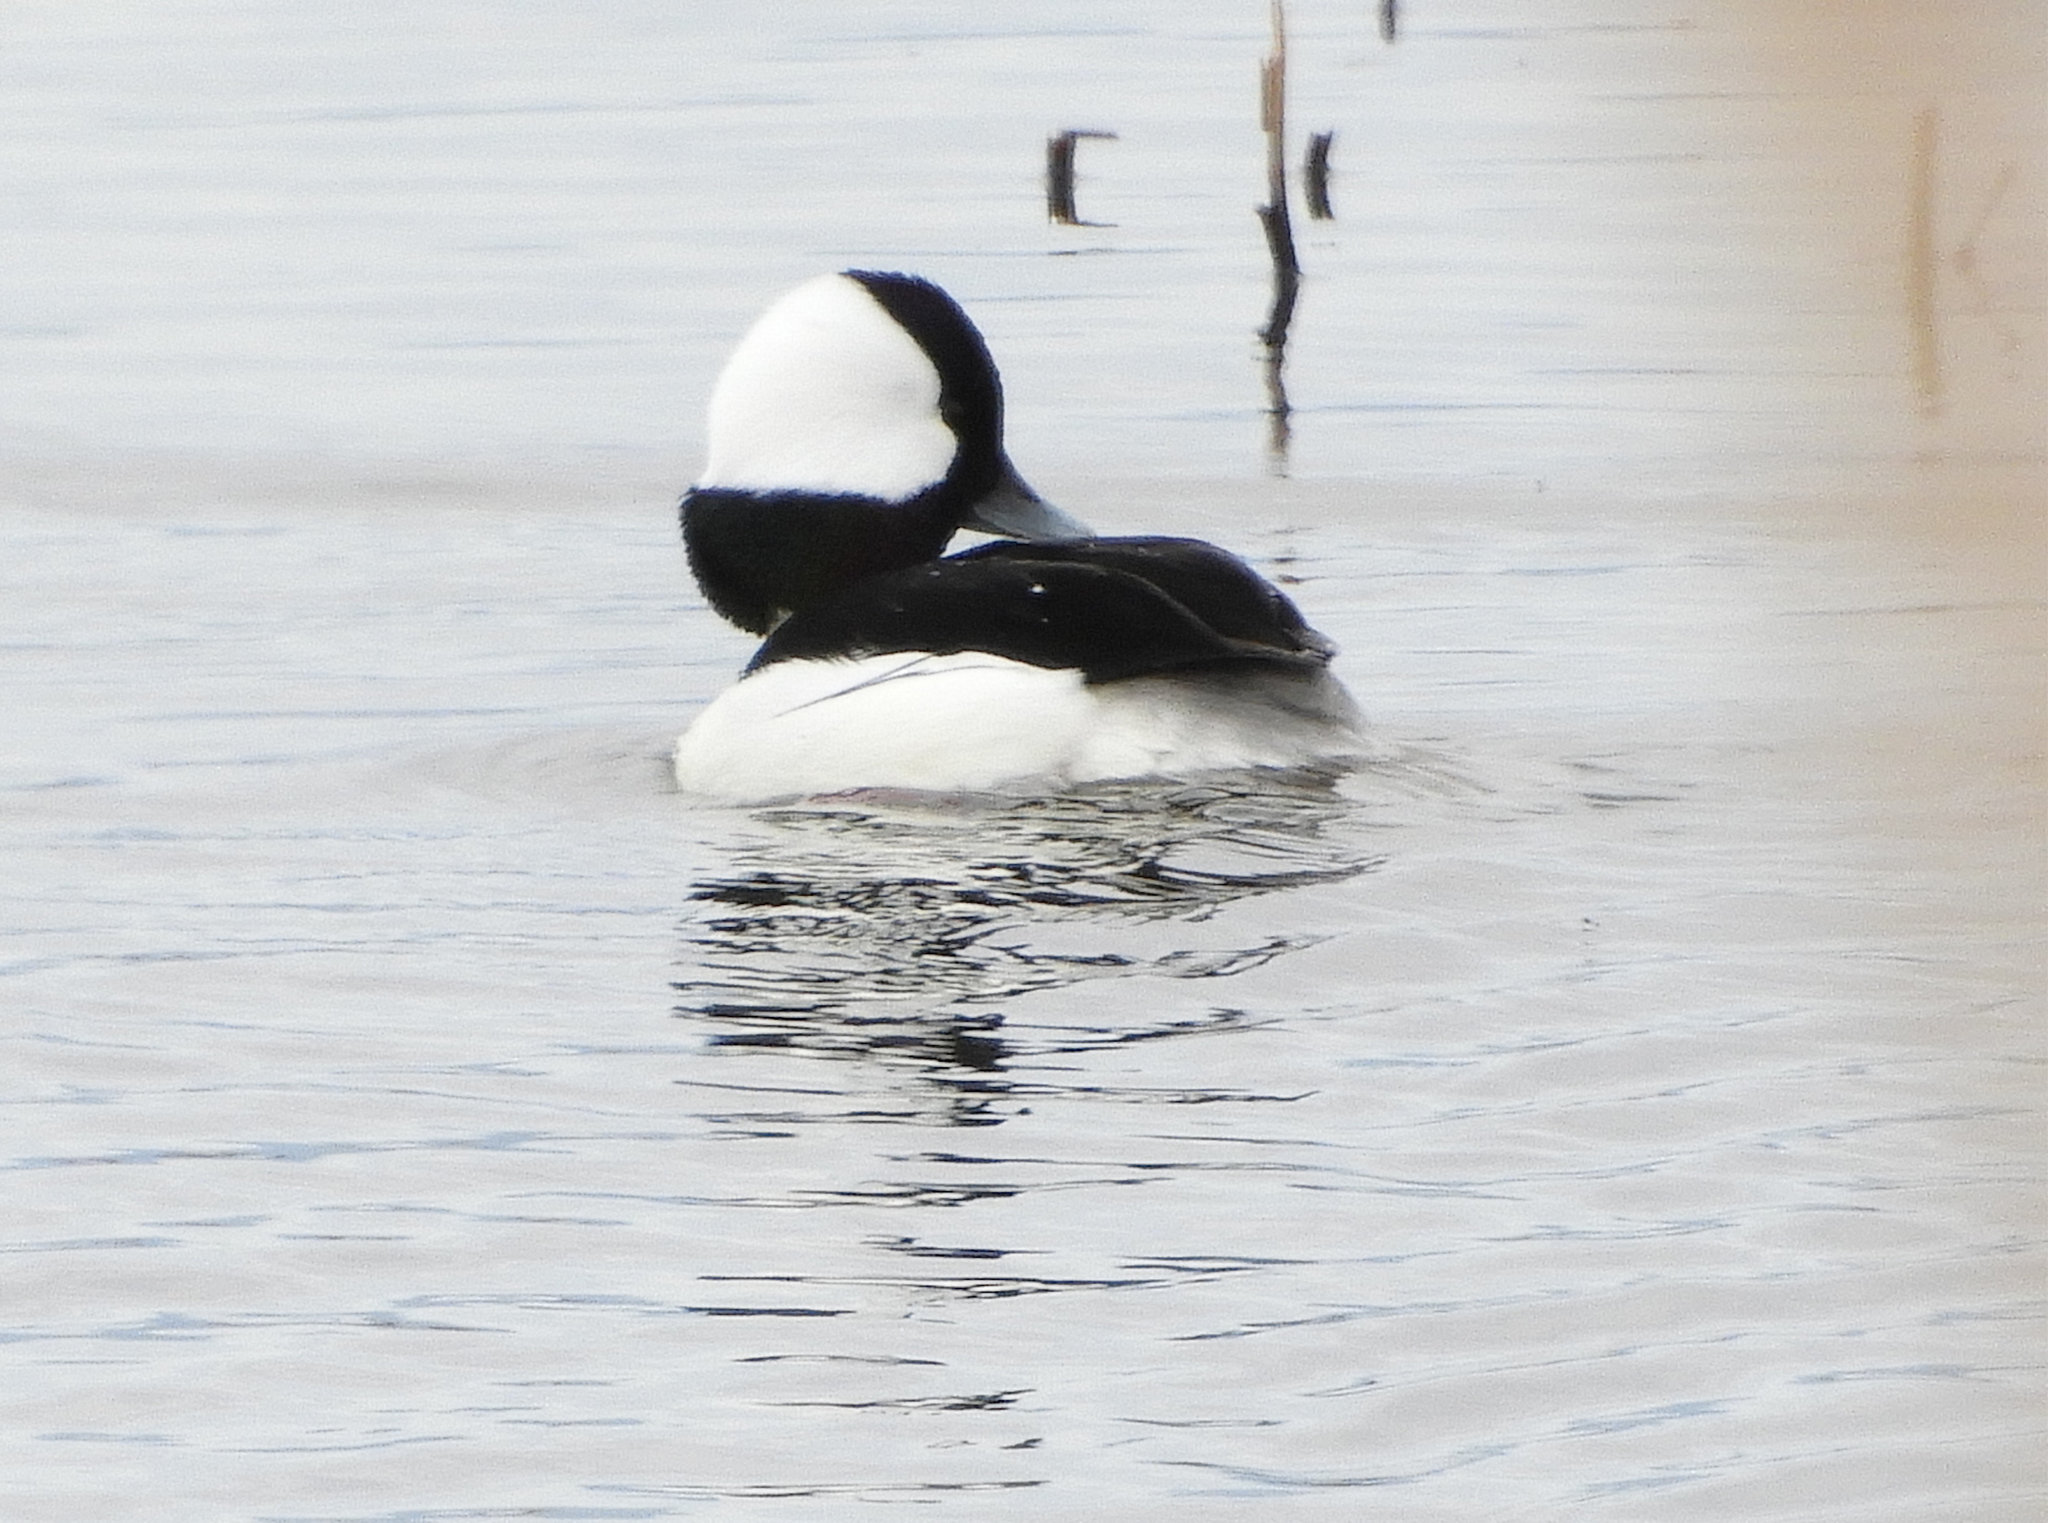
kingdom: Animalia
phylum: Chordata
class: Aves
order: Anseriformes
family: Anatidae
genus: Bucephala
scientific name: Bucephala albeola
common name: Bufflehead
